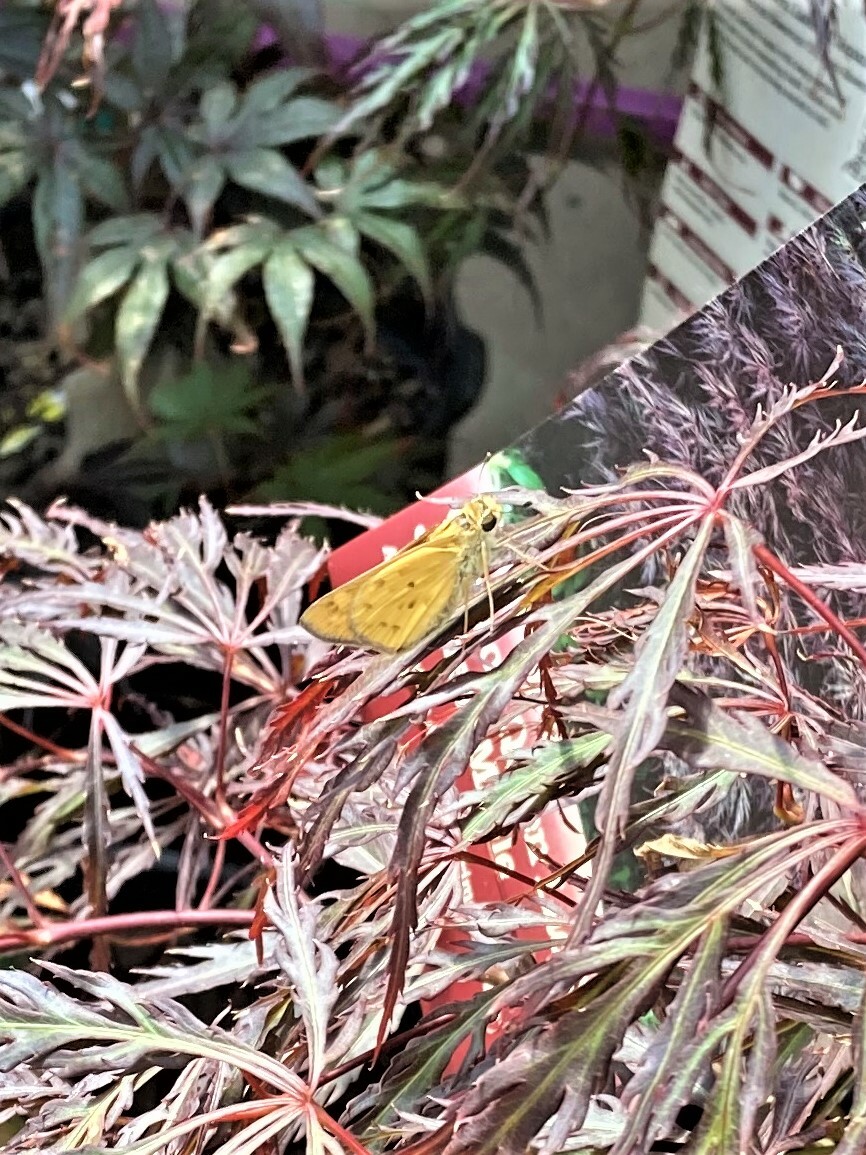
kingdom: Animalia
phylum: Arthropoda
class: Insecta
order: Lepidoptera
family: Hesperiidae
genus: Hylephila
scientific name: Hylephila phyleus
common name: Fiery skipper
